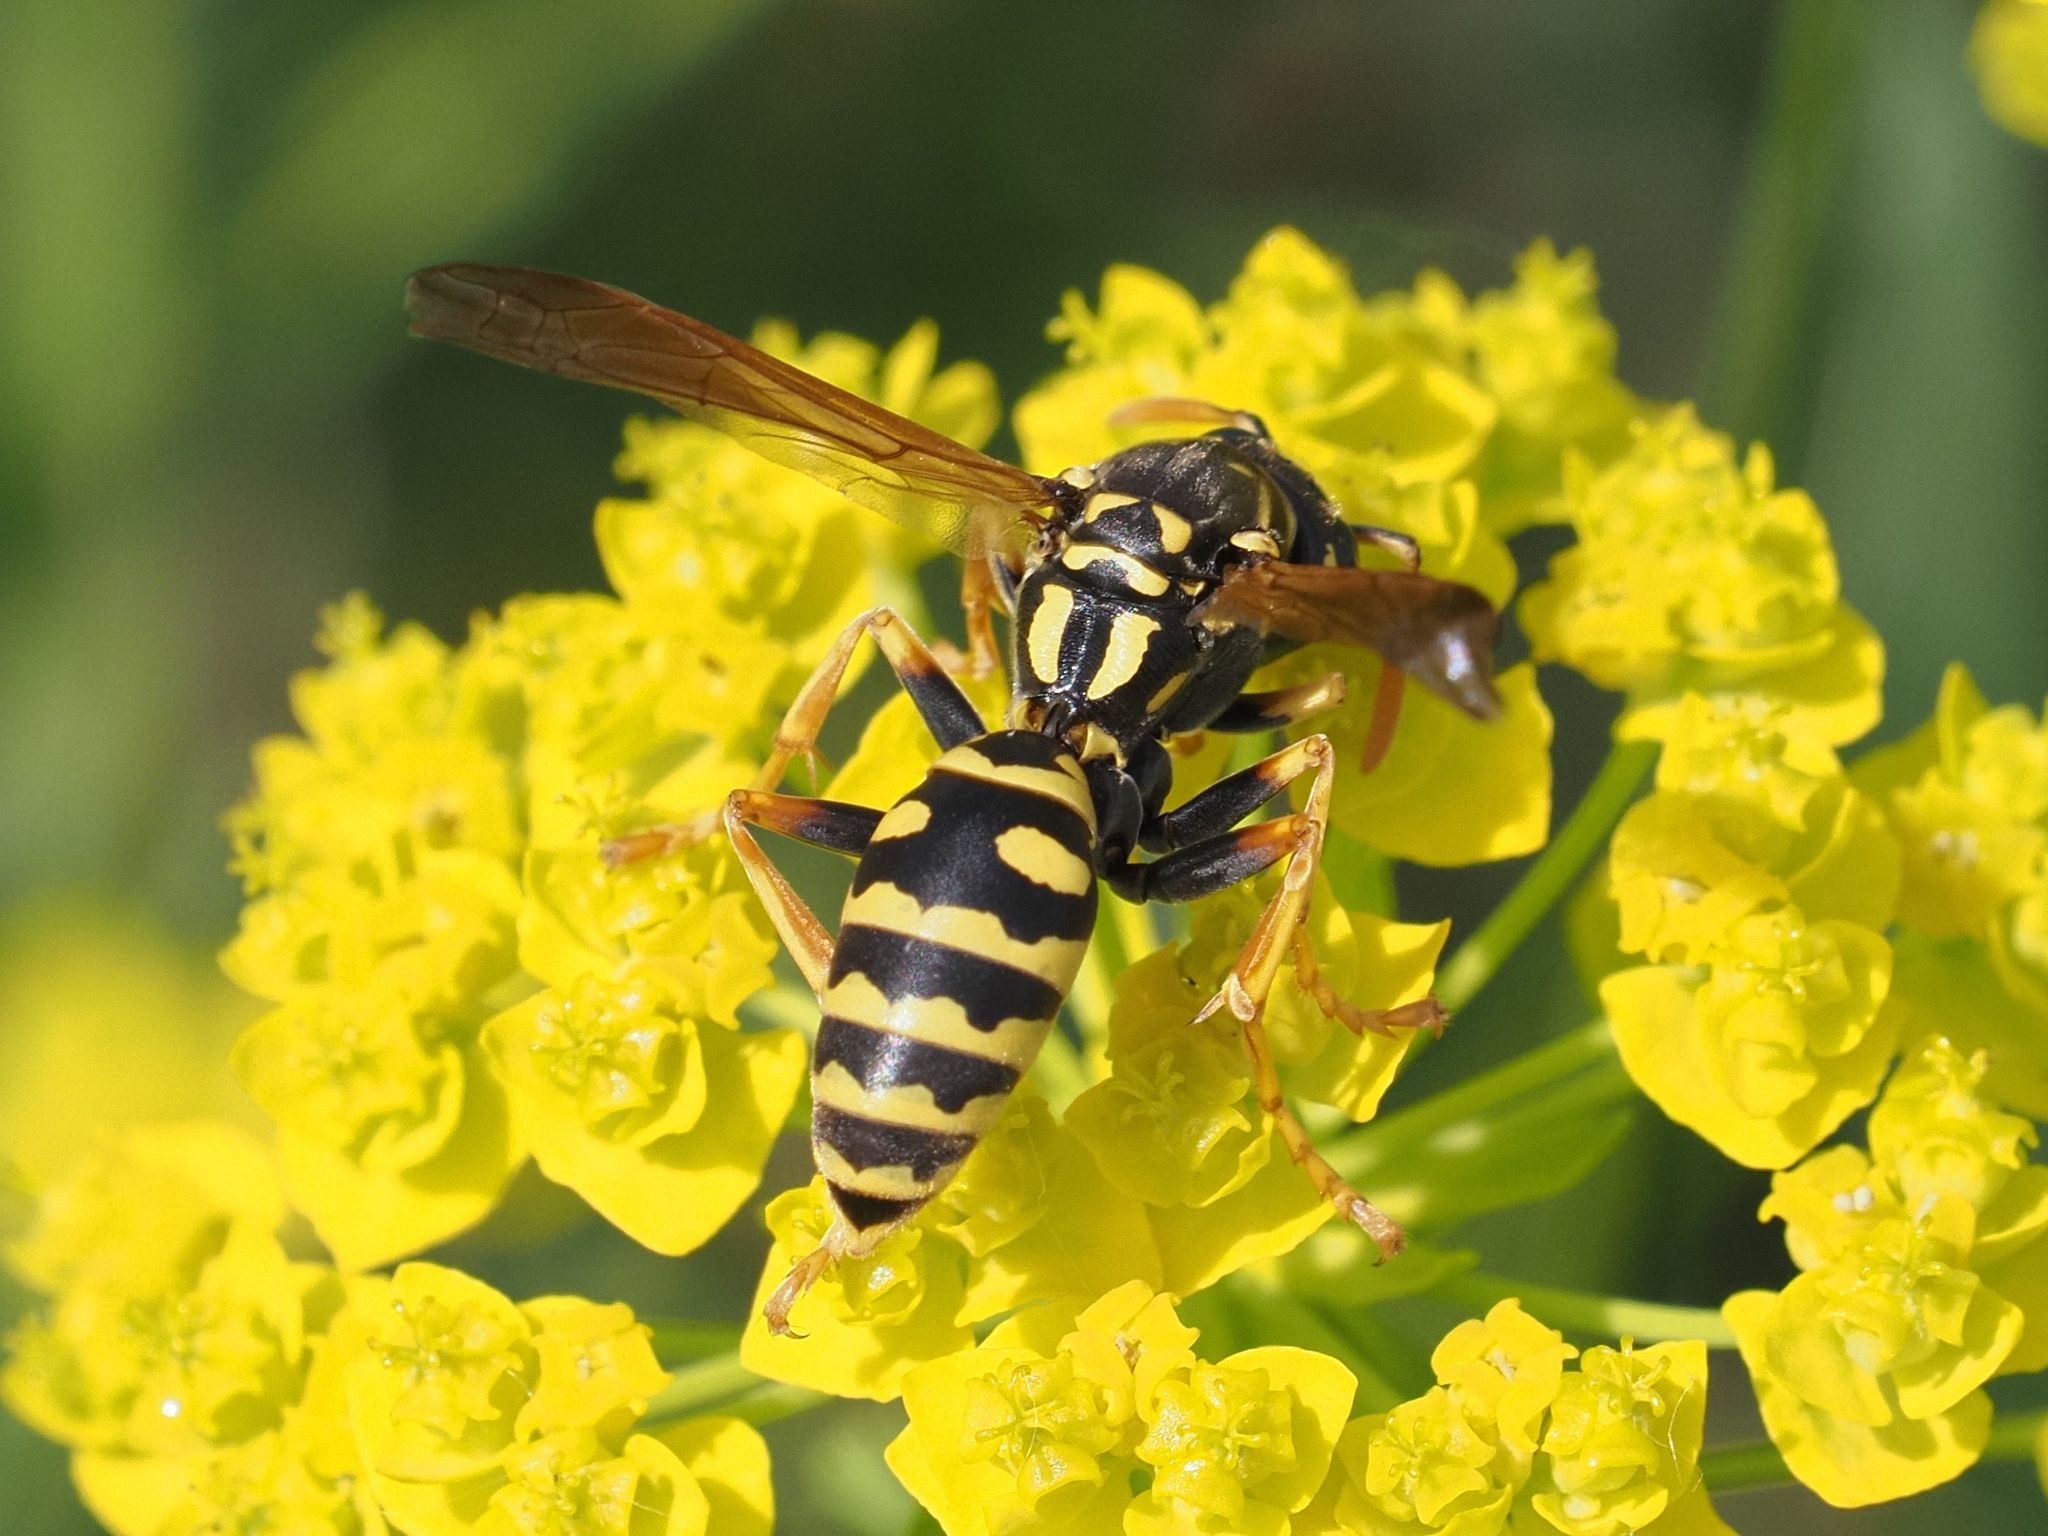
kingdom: Animalia
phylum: Arthropoda
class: Insecta
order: Hymenoptera
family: Eumenidae
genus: Polistes
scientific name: Polistes dominula
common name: Paper wasp
